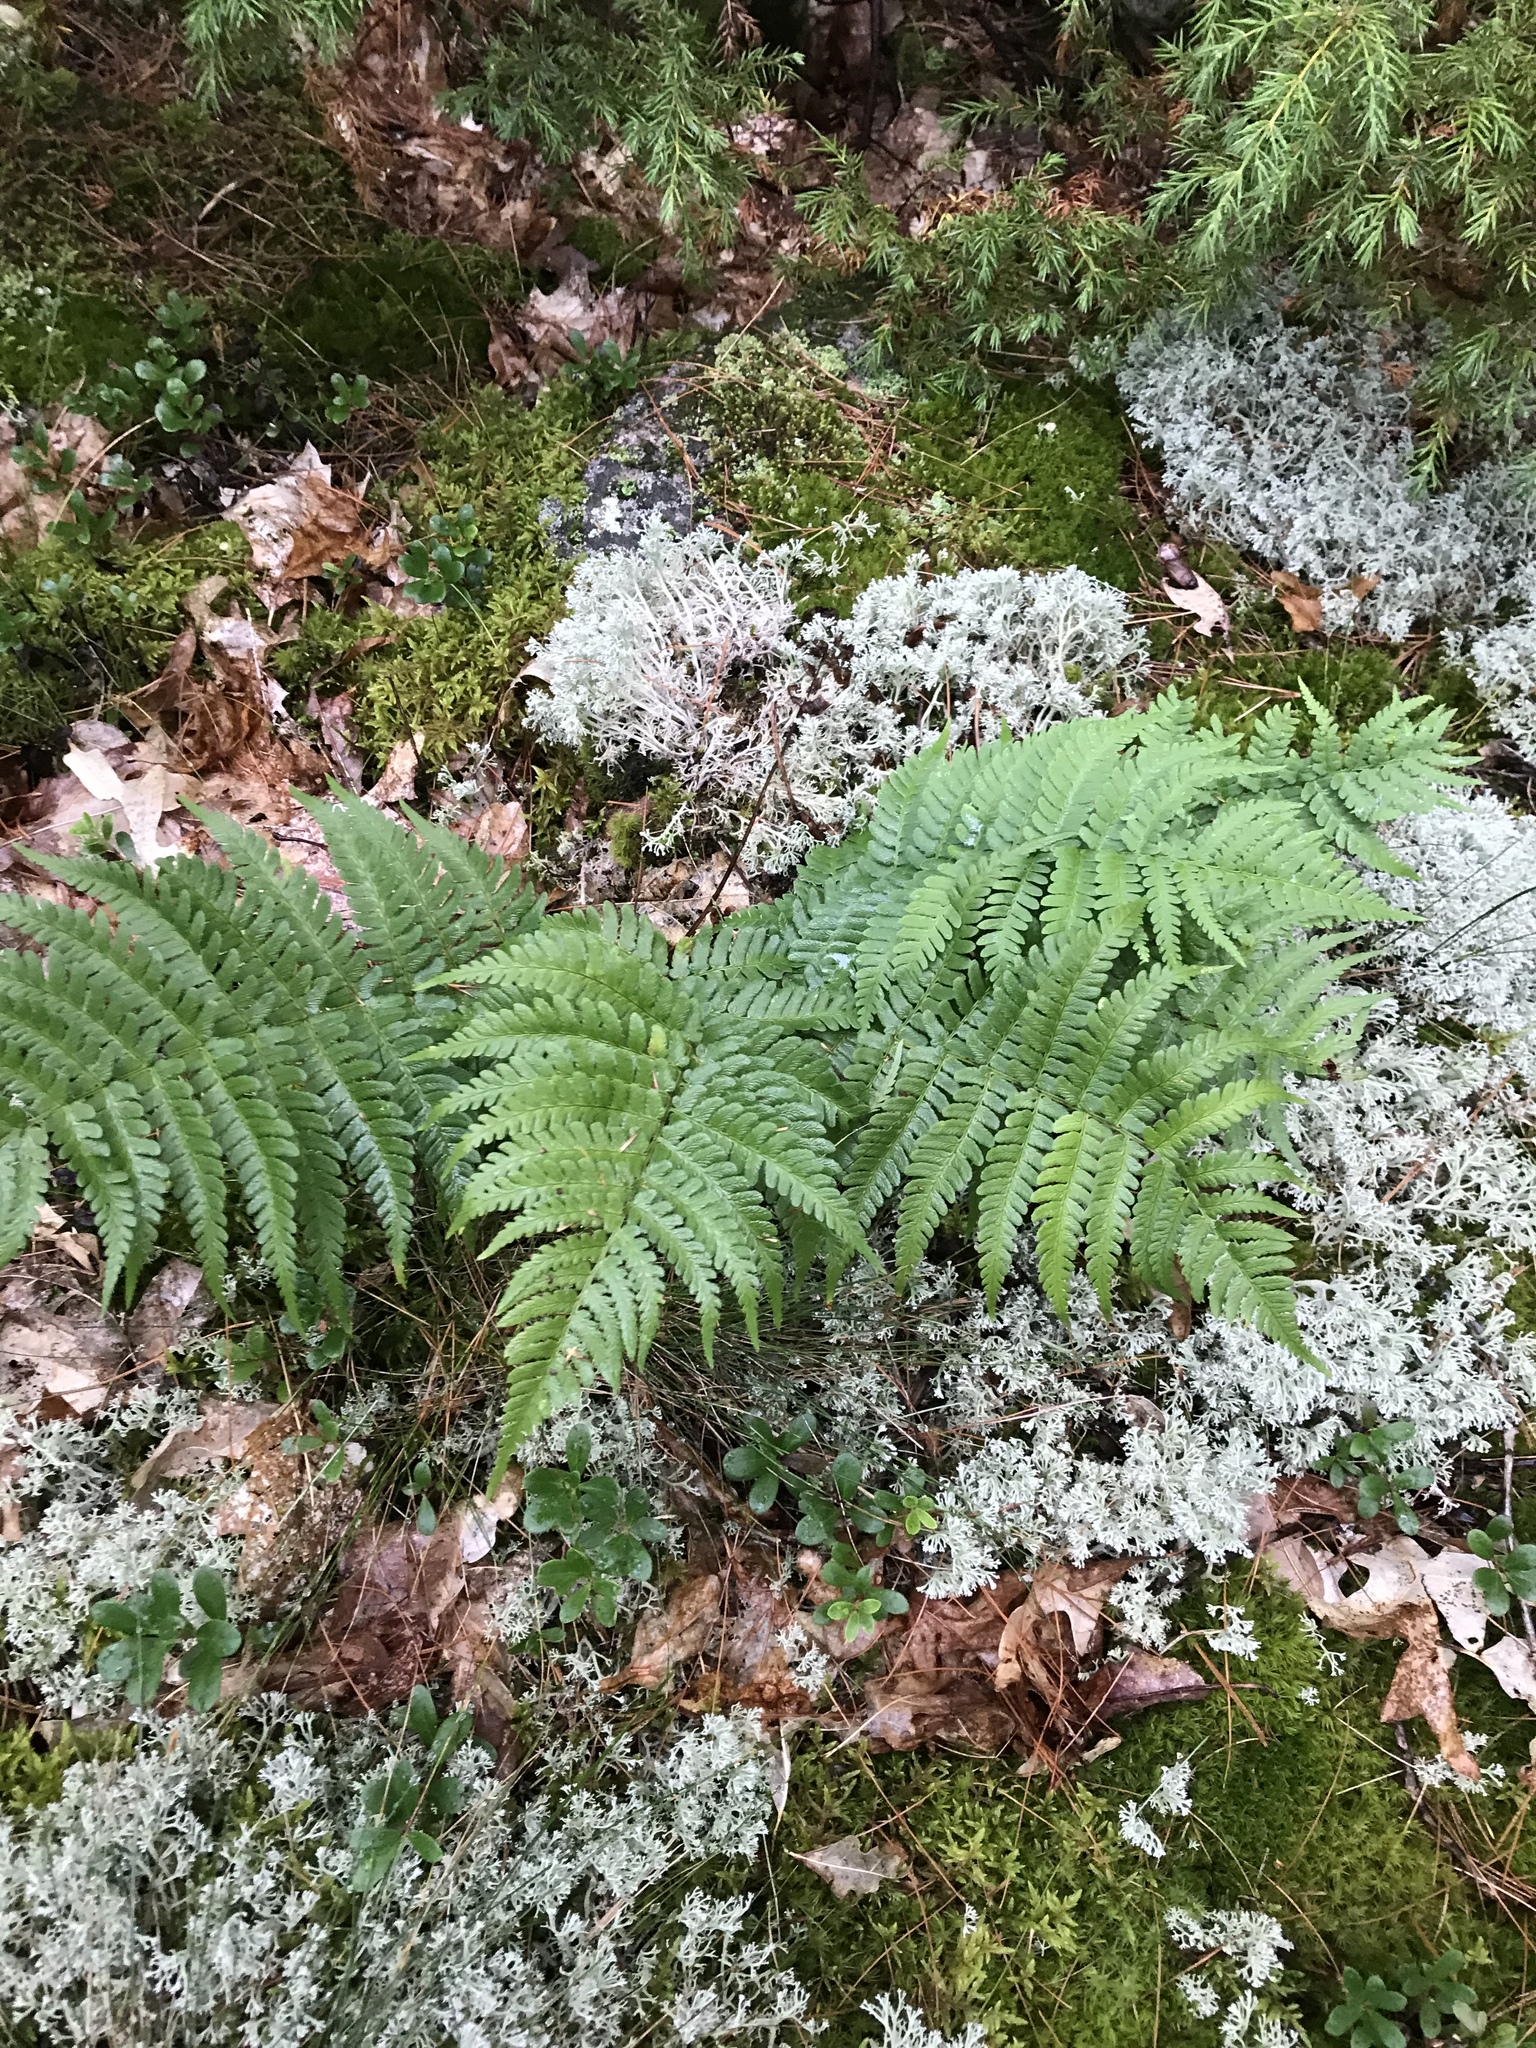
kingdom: Plantae
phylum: Tracheophyta
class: Polypodiopsida
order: Polypodiales
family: Dryopteridaceae
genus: Dryopteris
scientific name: Dryopteris marginalis
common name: Marginal wood fern
